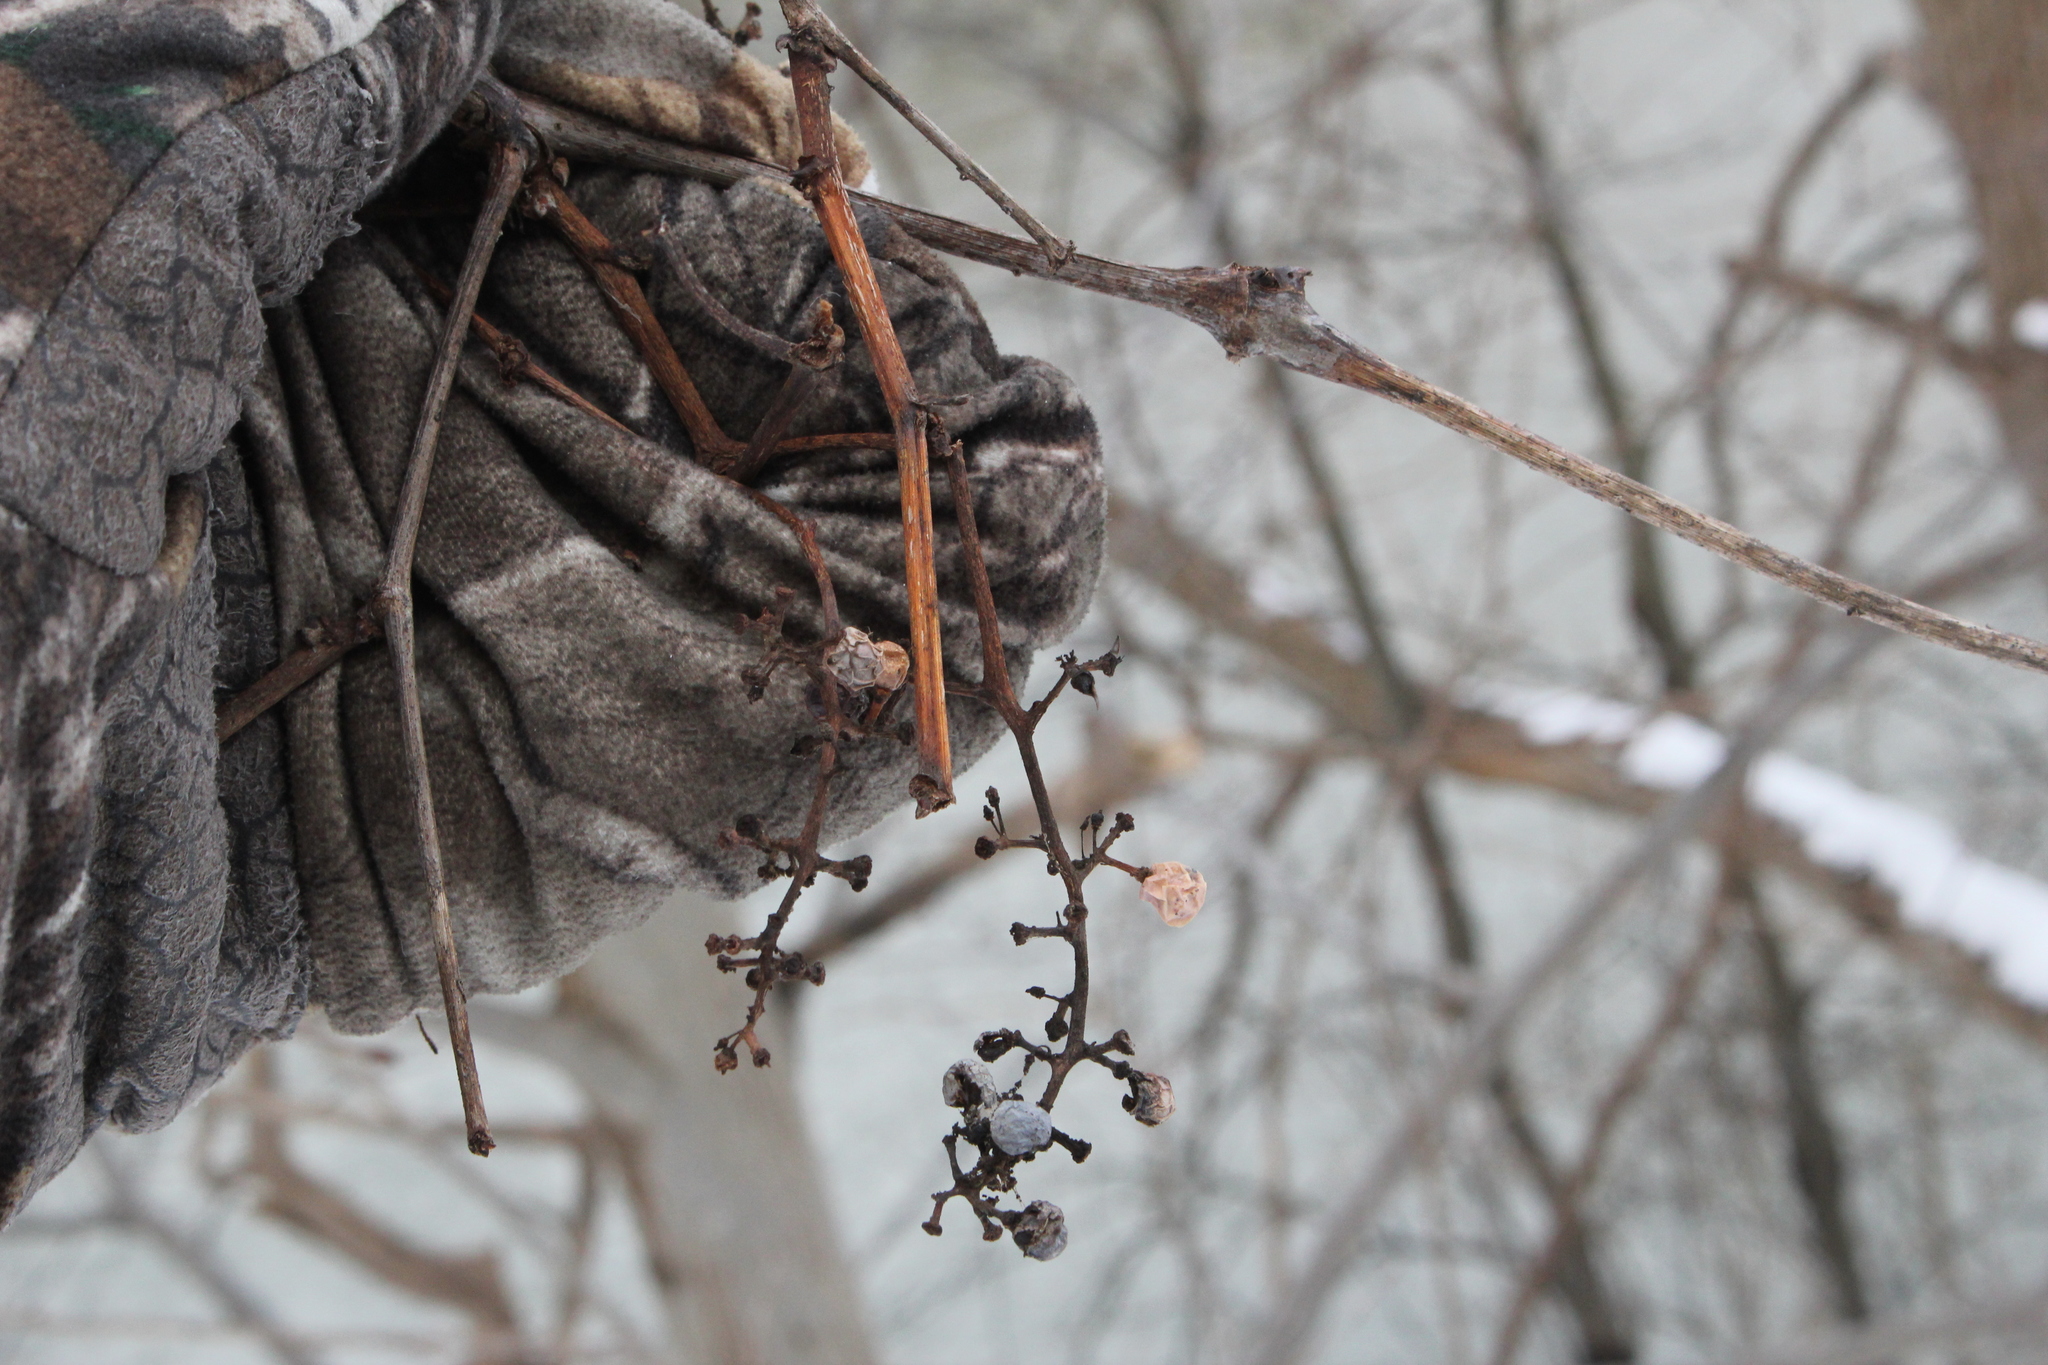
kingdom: Plantae
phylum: Tracheophyta
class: Magnoliopsida
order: Vitales
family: Vitaceae
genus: Vitis
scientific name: Vitis riparia
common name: Frost grape
